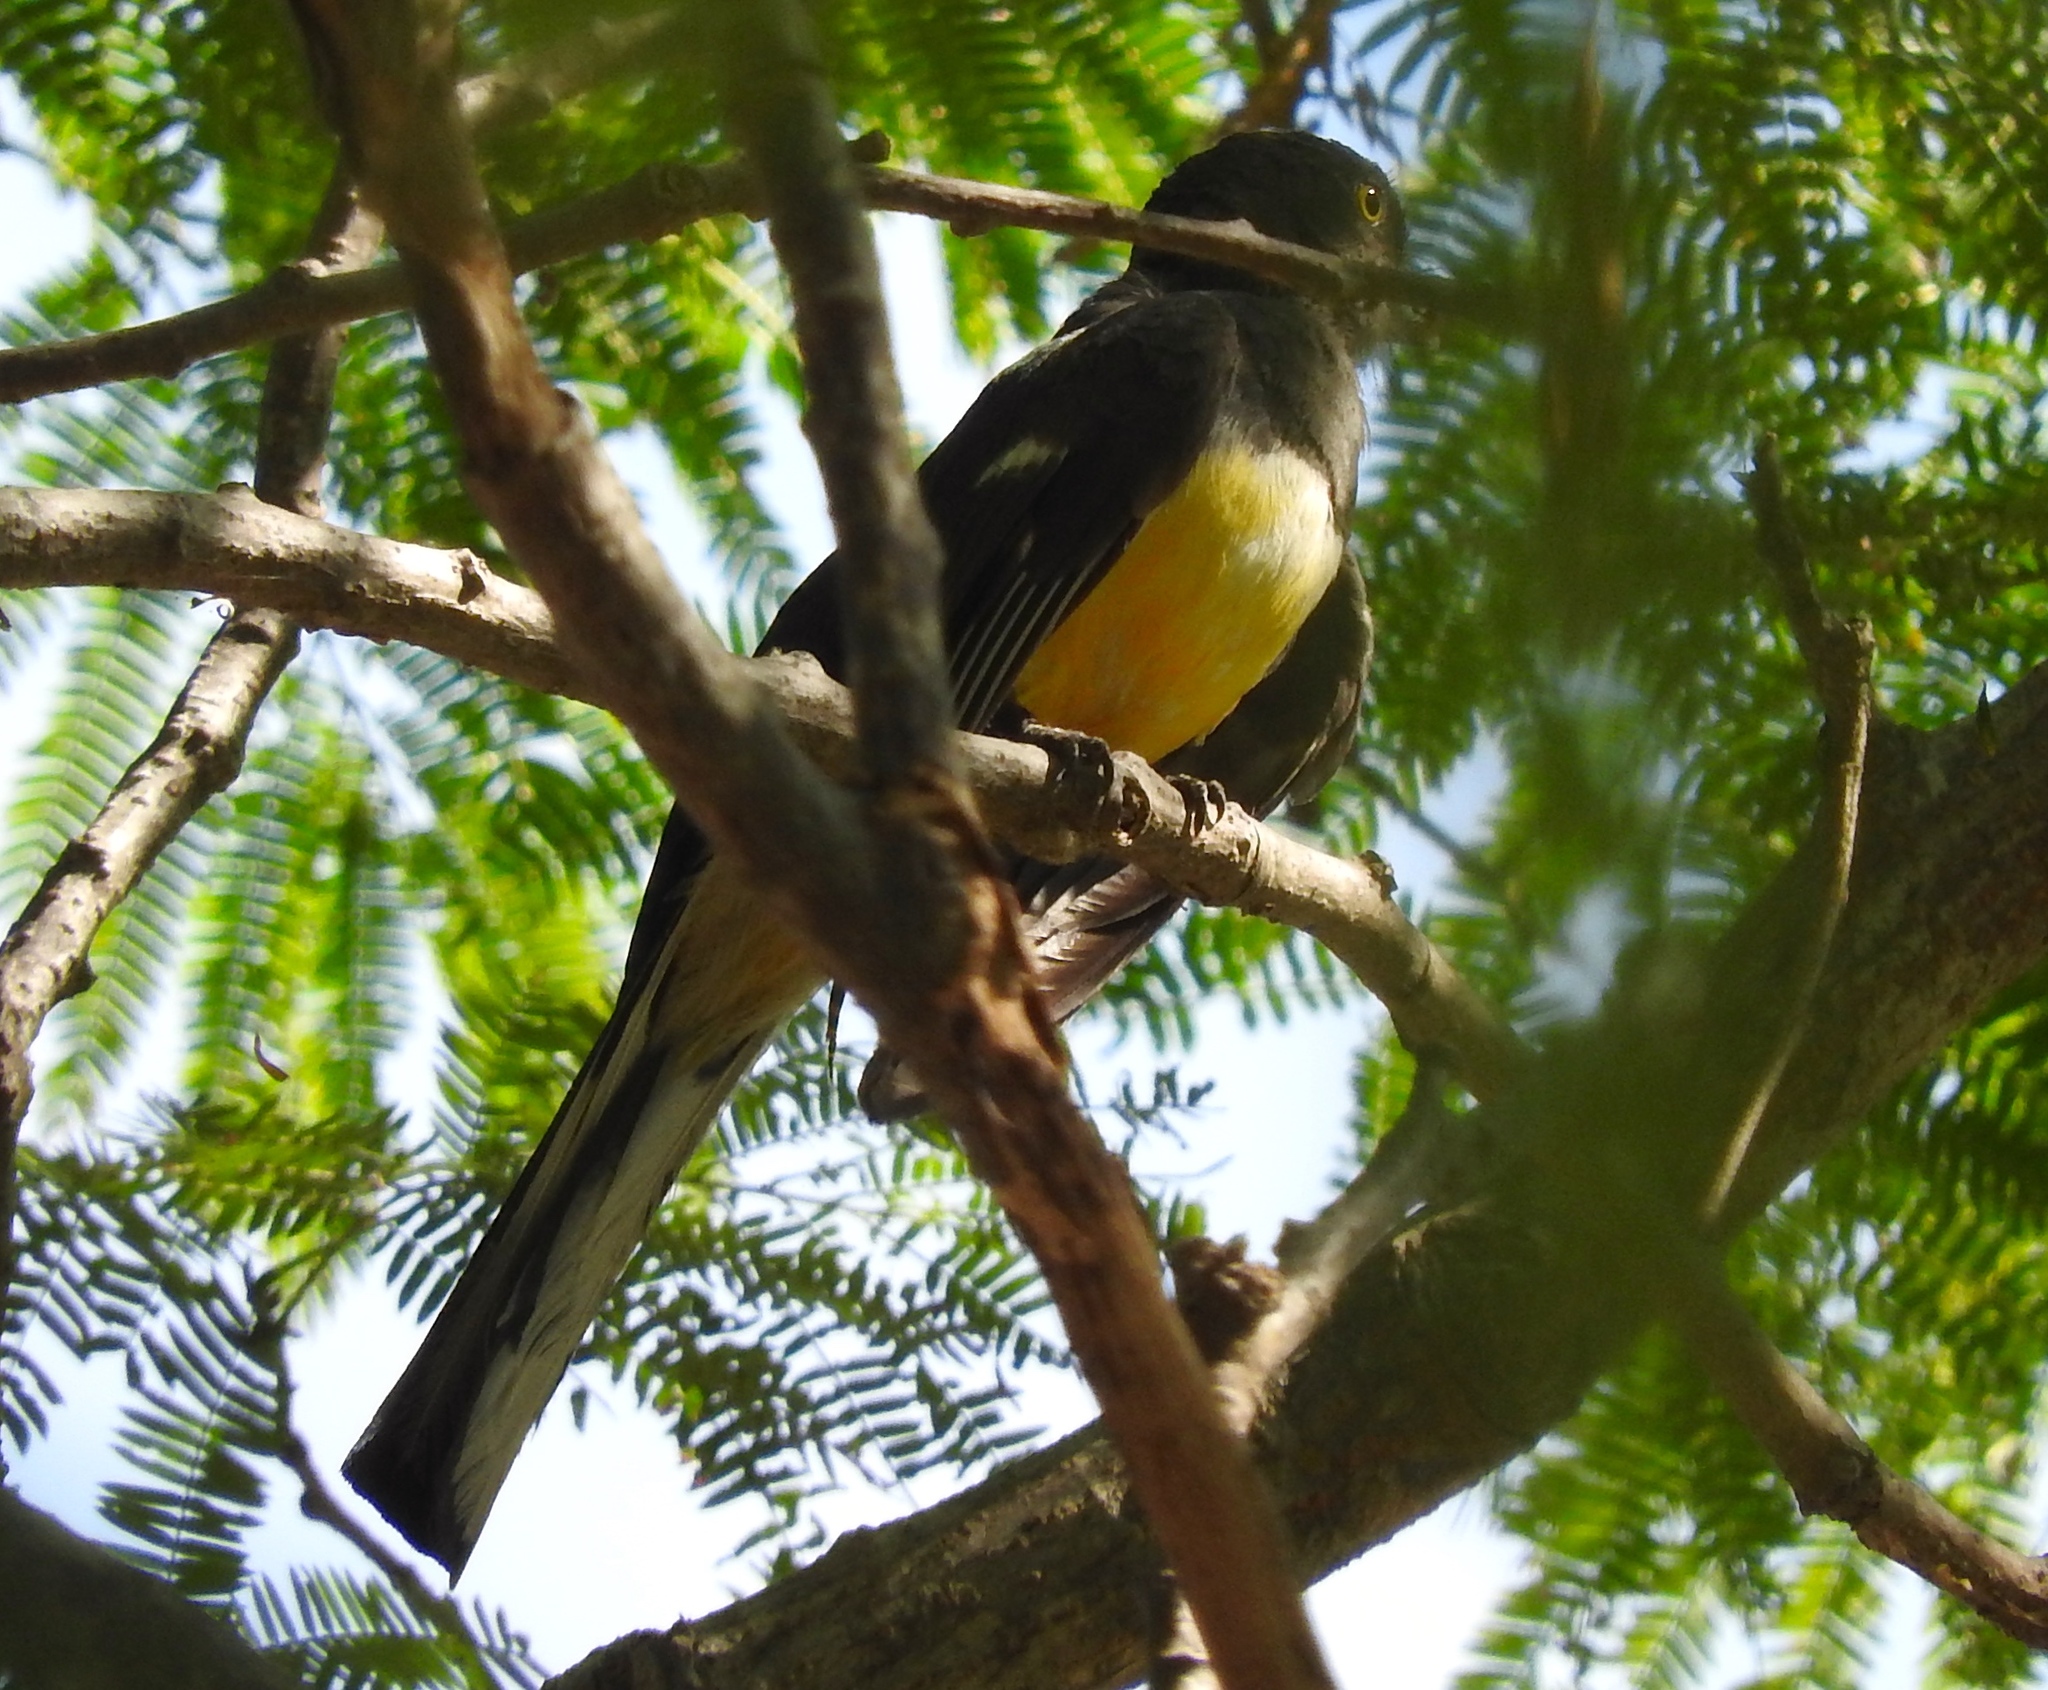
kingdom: Animalia
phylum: Chordata
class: Aves
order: Trogoniformes
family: Trogonidae
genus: Trogon
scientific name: Trogon citreolus
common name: Citreoline trogon
